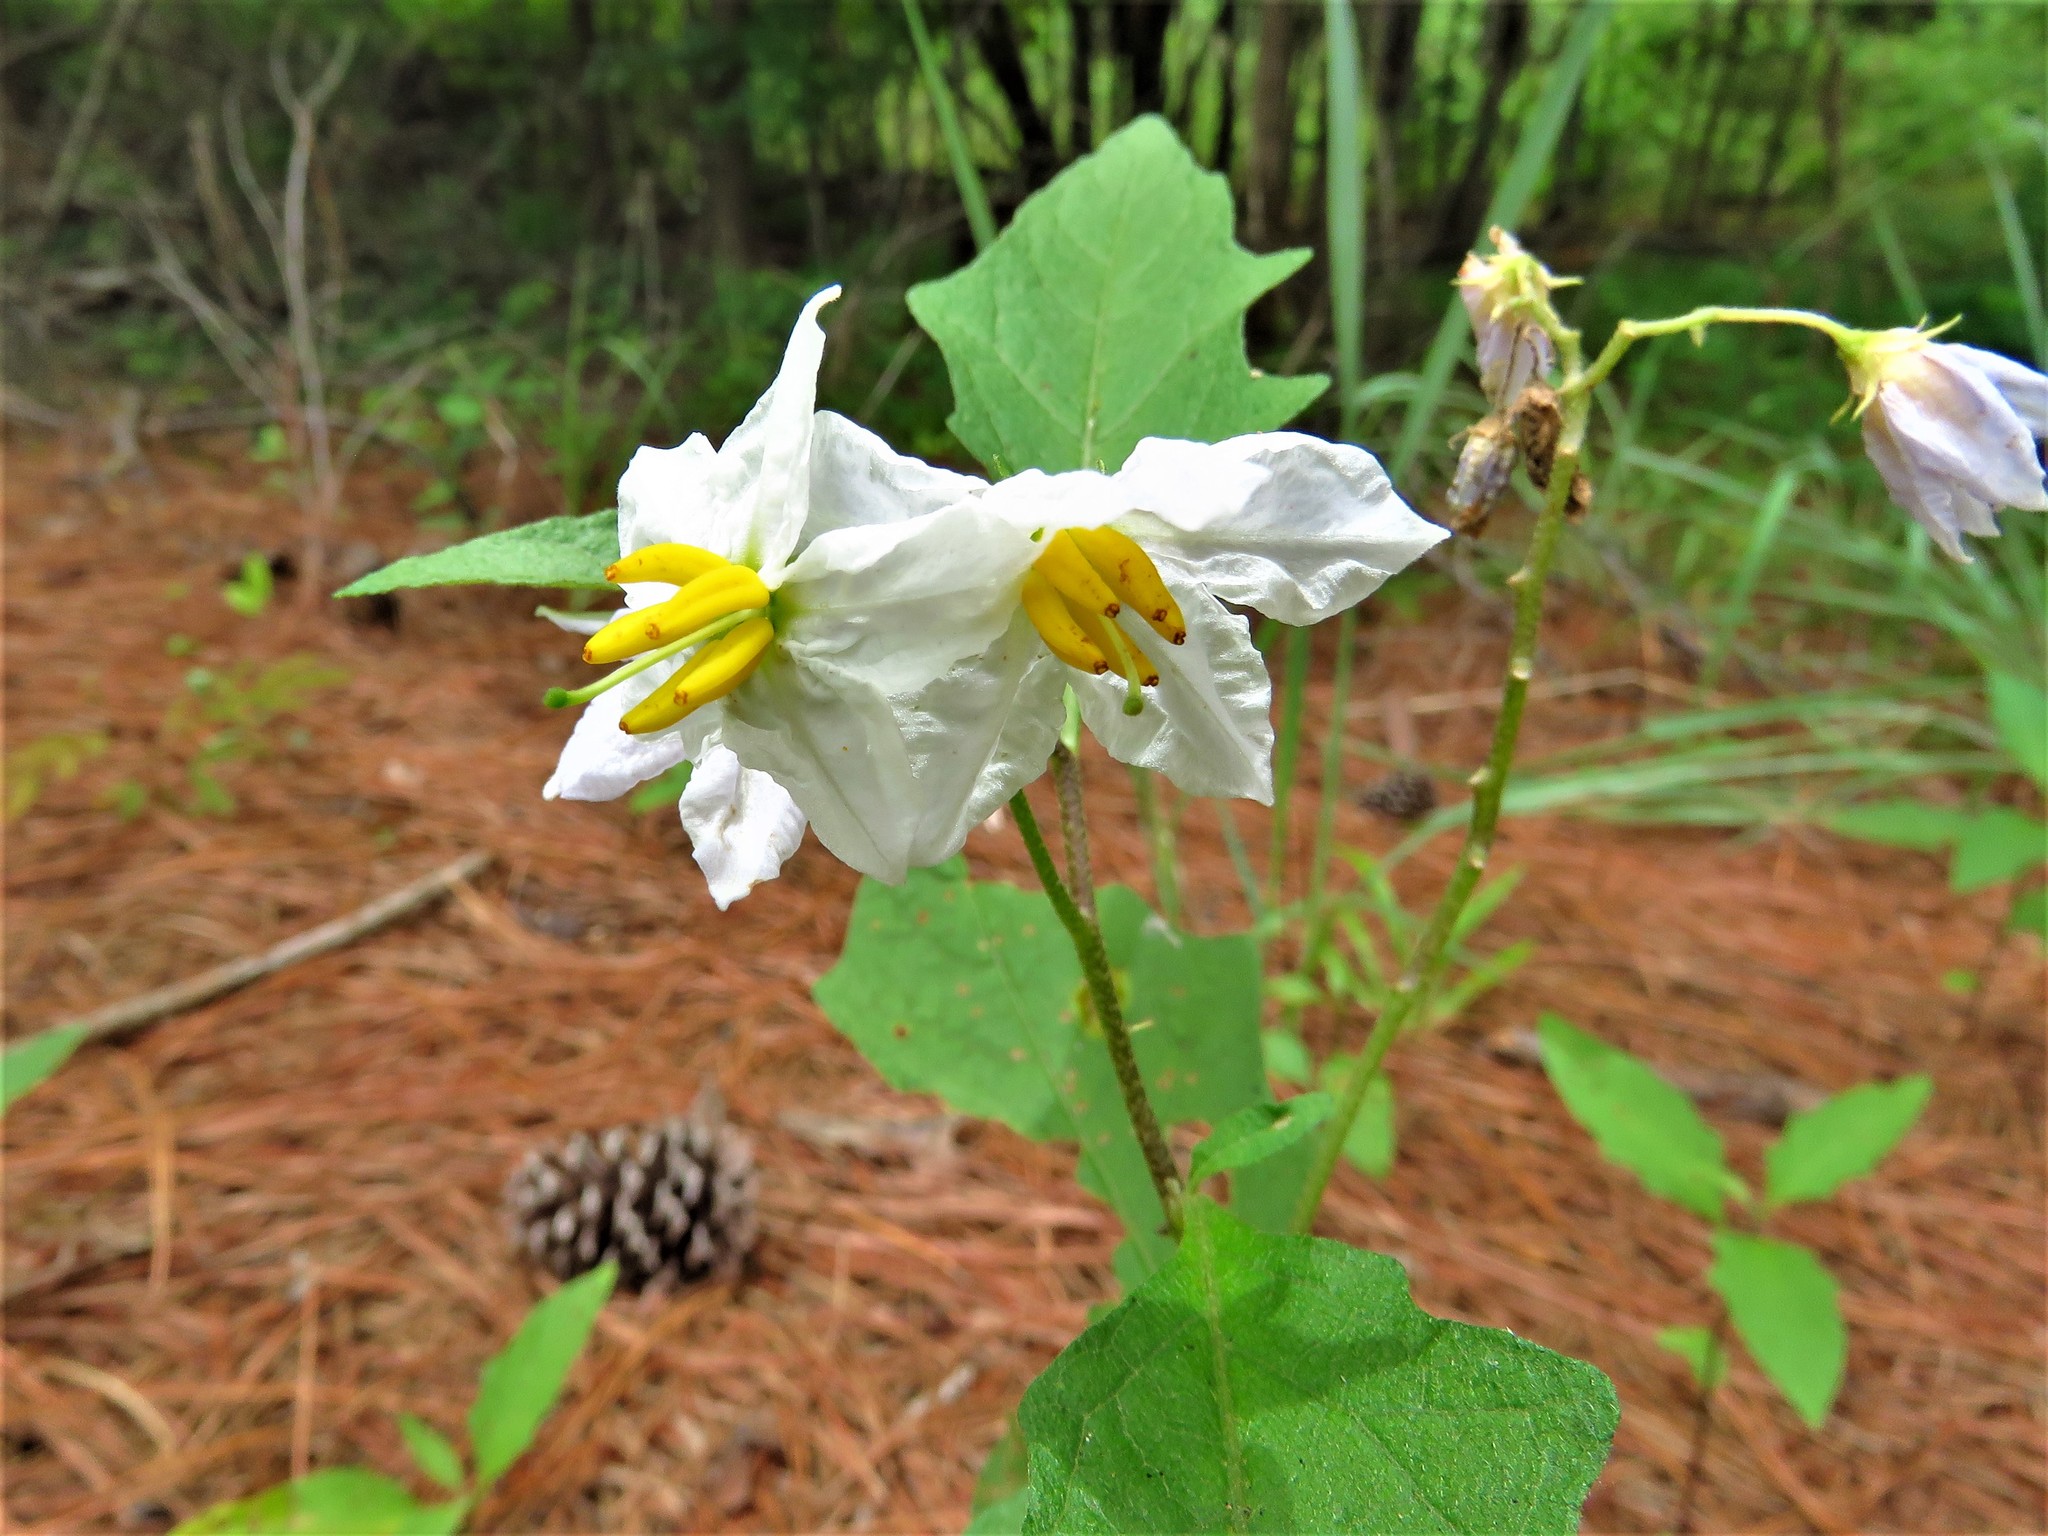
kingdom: Plantae
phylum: Tracheophyta
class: Magnoliopsida
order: Solanales
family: Solanaceae
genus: Solanum
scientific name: Solanum carolinense
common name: Horse-nettle
